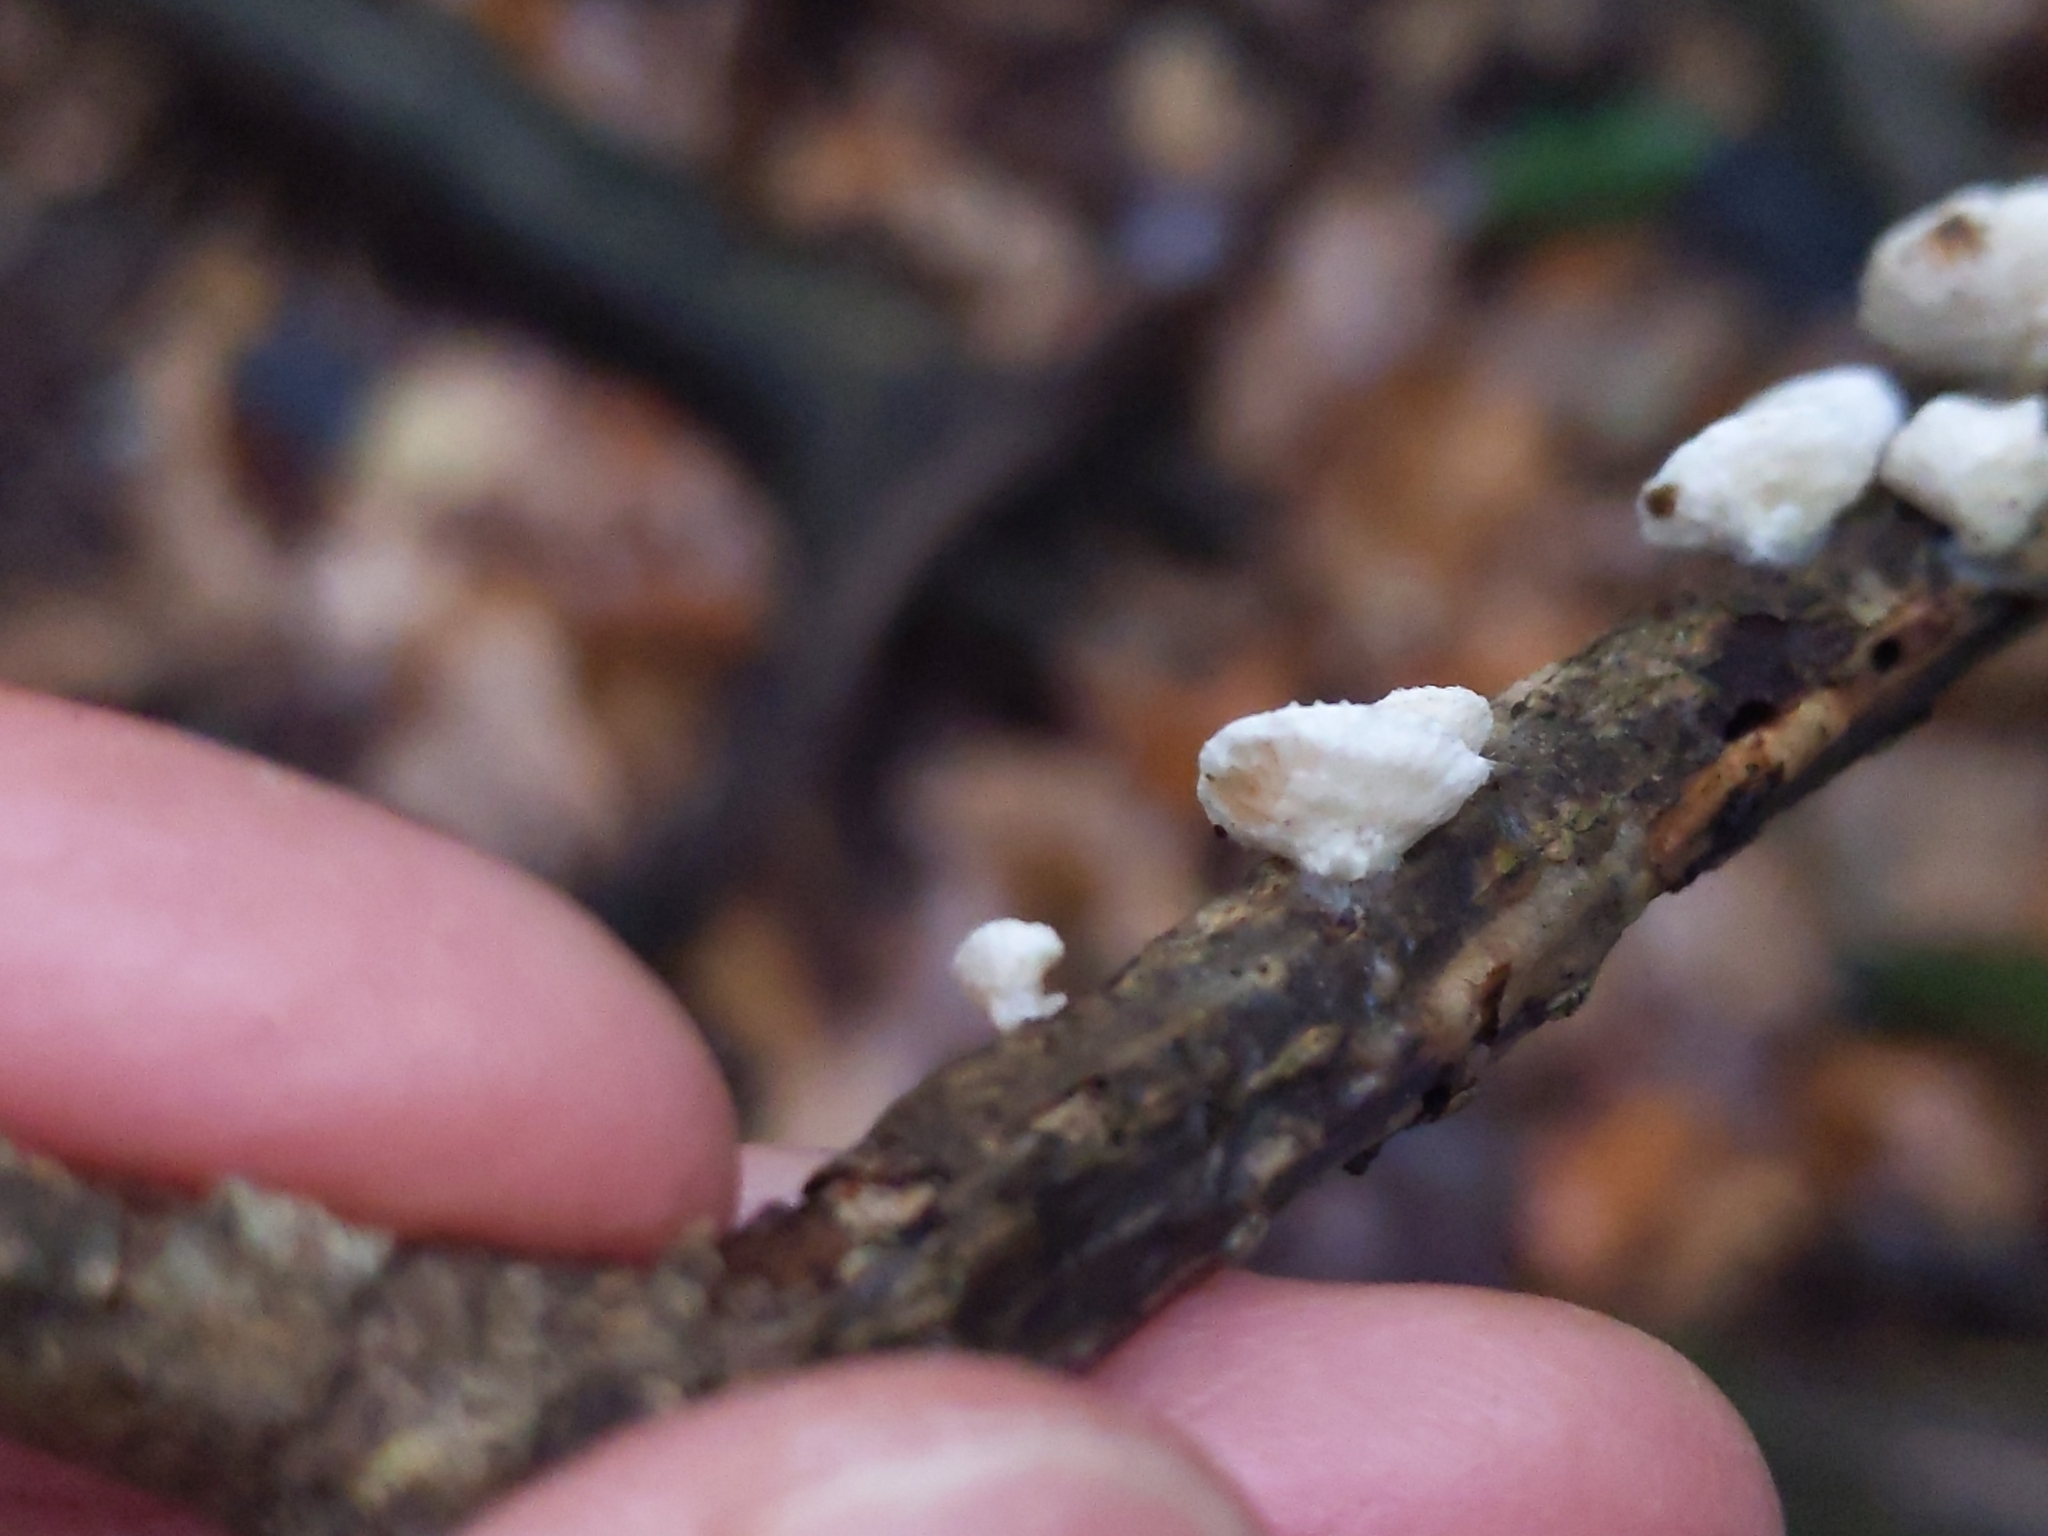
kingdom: Fungi
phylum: Basidiomycota
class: Agaricomycetes
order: Agaricales
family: Crepidotaceae
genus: Crepidotus
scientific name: Crepidotus variabilis
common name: Variable oysterling
